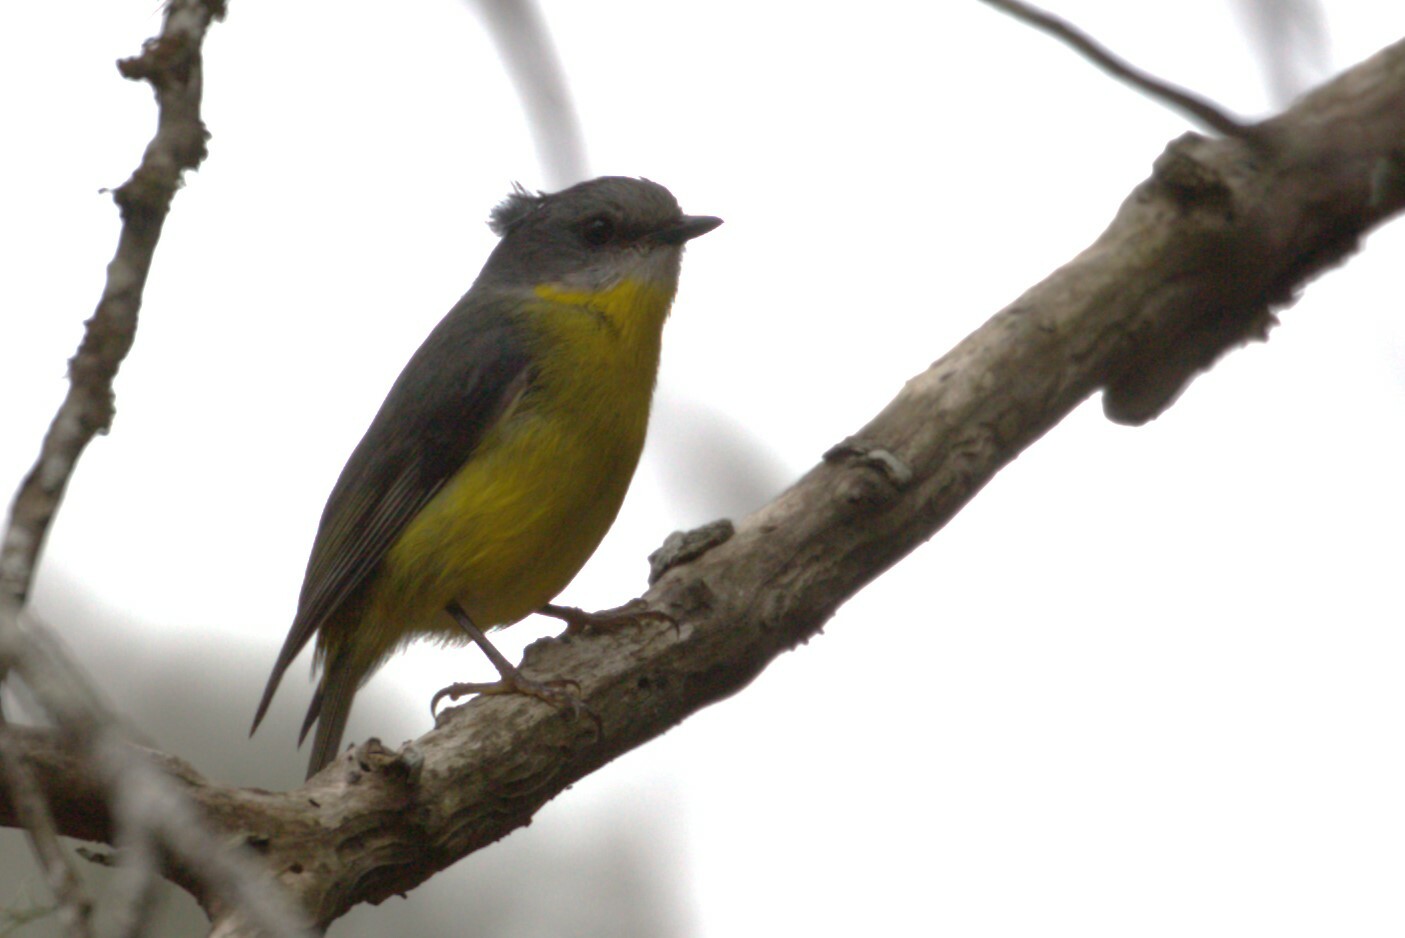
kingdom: Animalia
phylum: Chordata
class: Aves
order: Passeriformes
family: Petroicidae
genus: Eopsaltria
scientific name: Eopsaltria australis
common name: Eastern yellow robin
